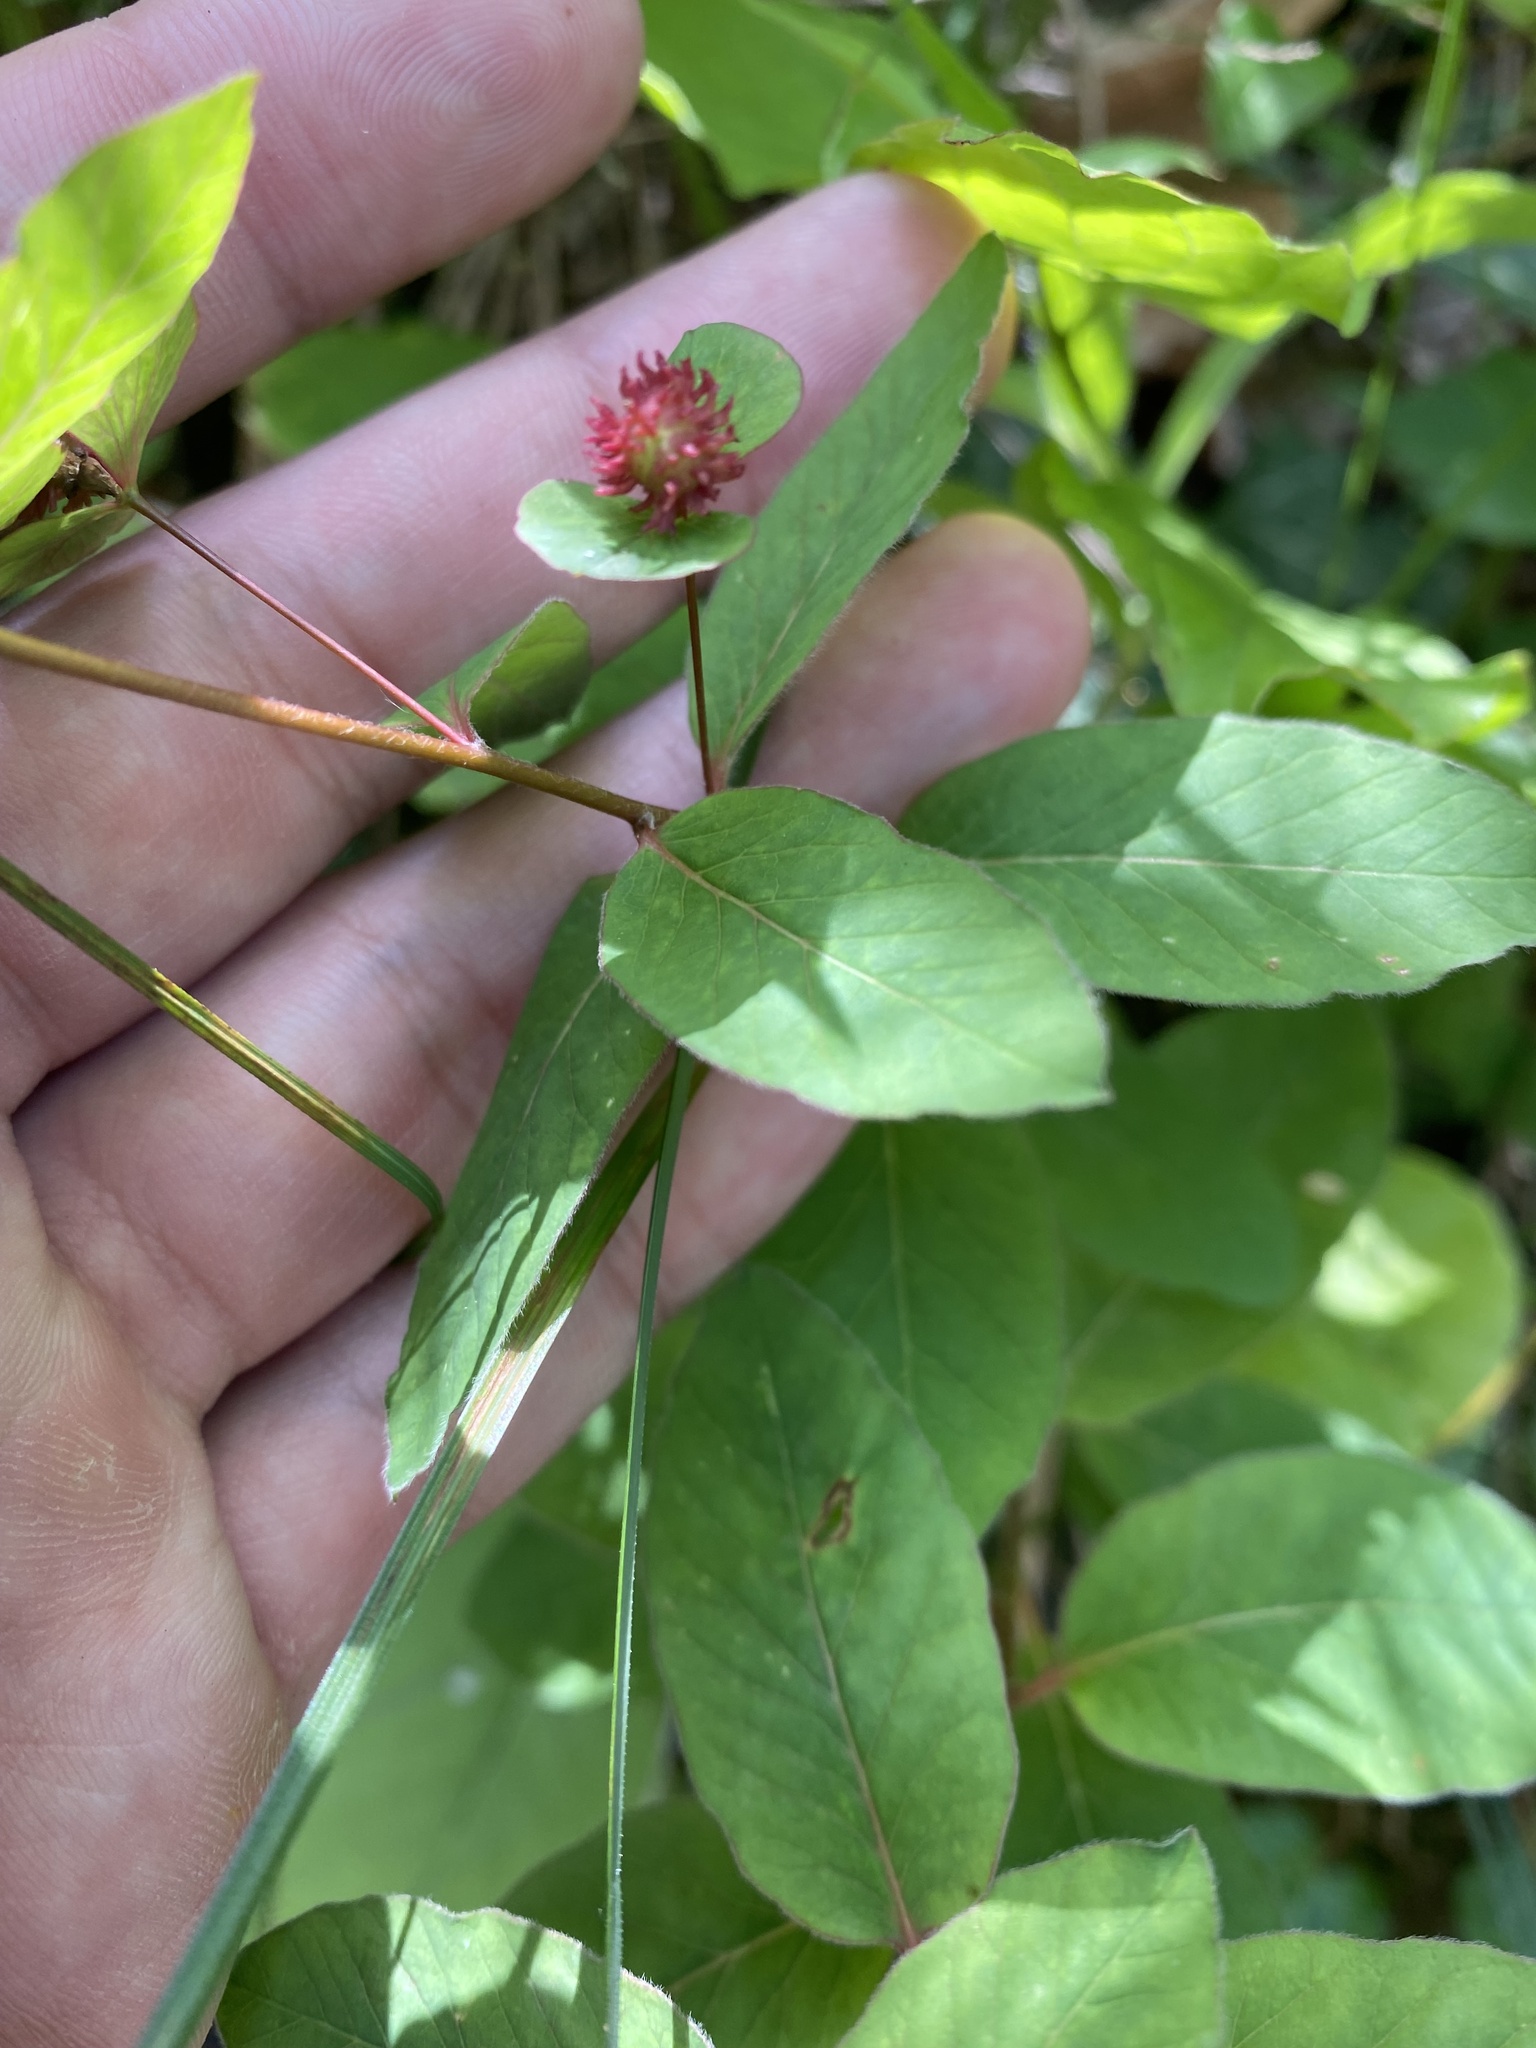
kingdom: Plantae
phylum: Tracheophyta
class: Magnoliopsida
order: Malpighiales
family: Euphorbiaceae
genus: Euphorbia
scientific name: Euphorbia squamosa
